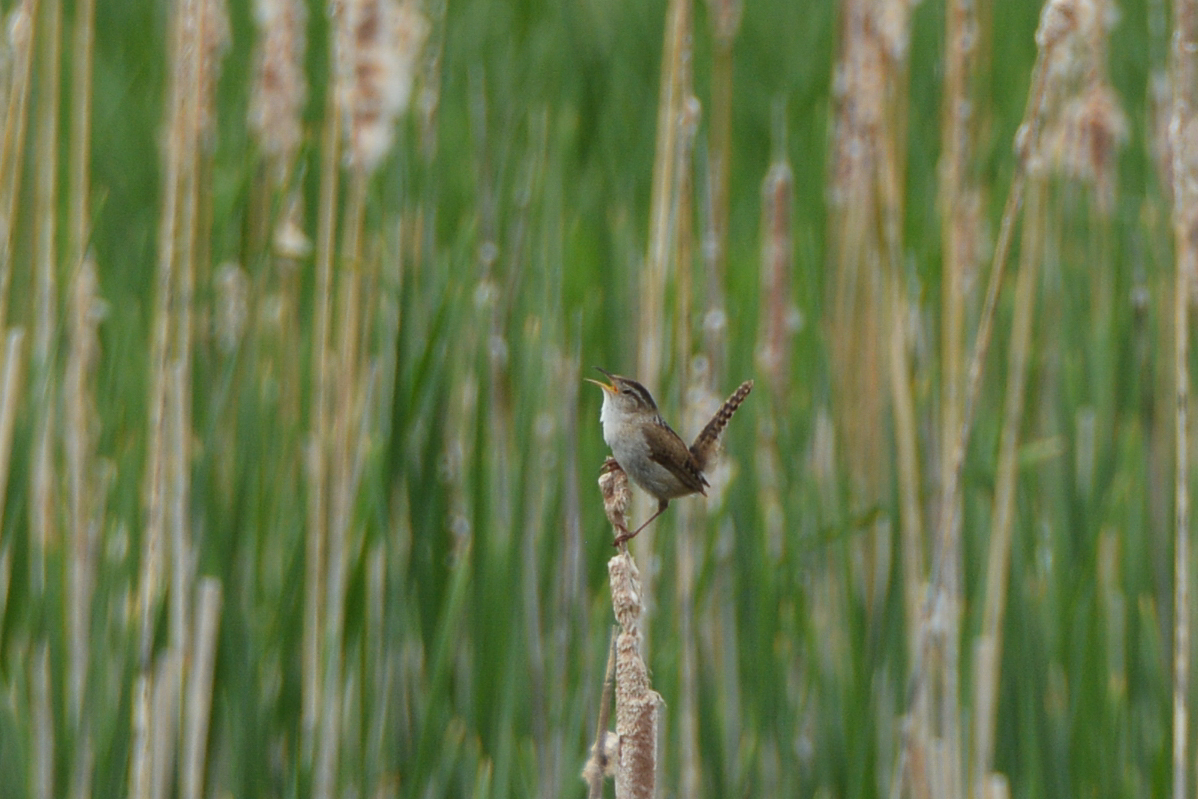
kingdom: Animalia
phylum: Chordata
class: Aves
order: Passeriformes
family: Troglodytidae
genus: Cistothorus
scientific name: Cistothorus palustris
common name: Marsh wren
